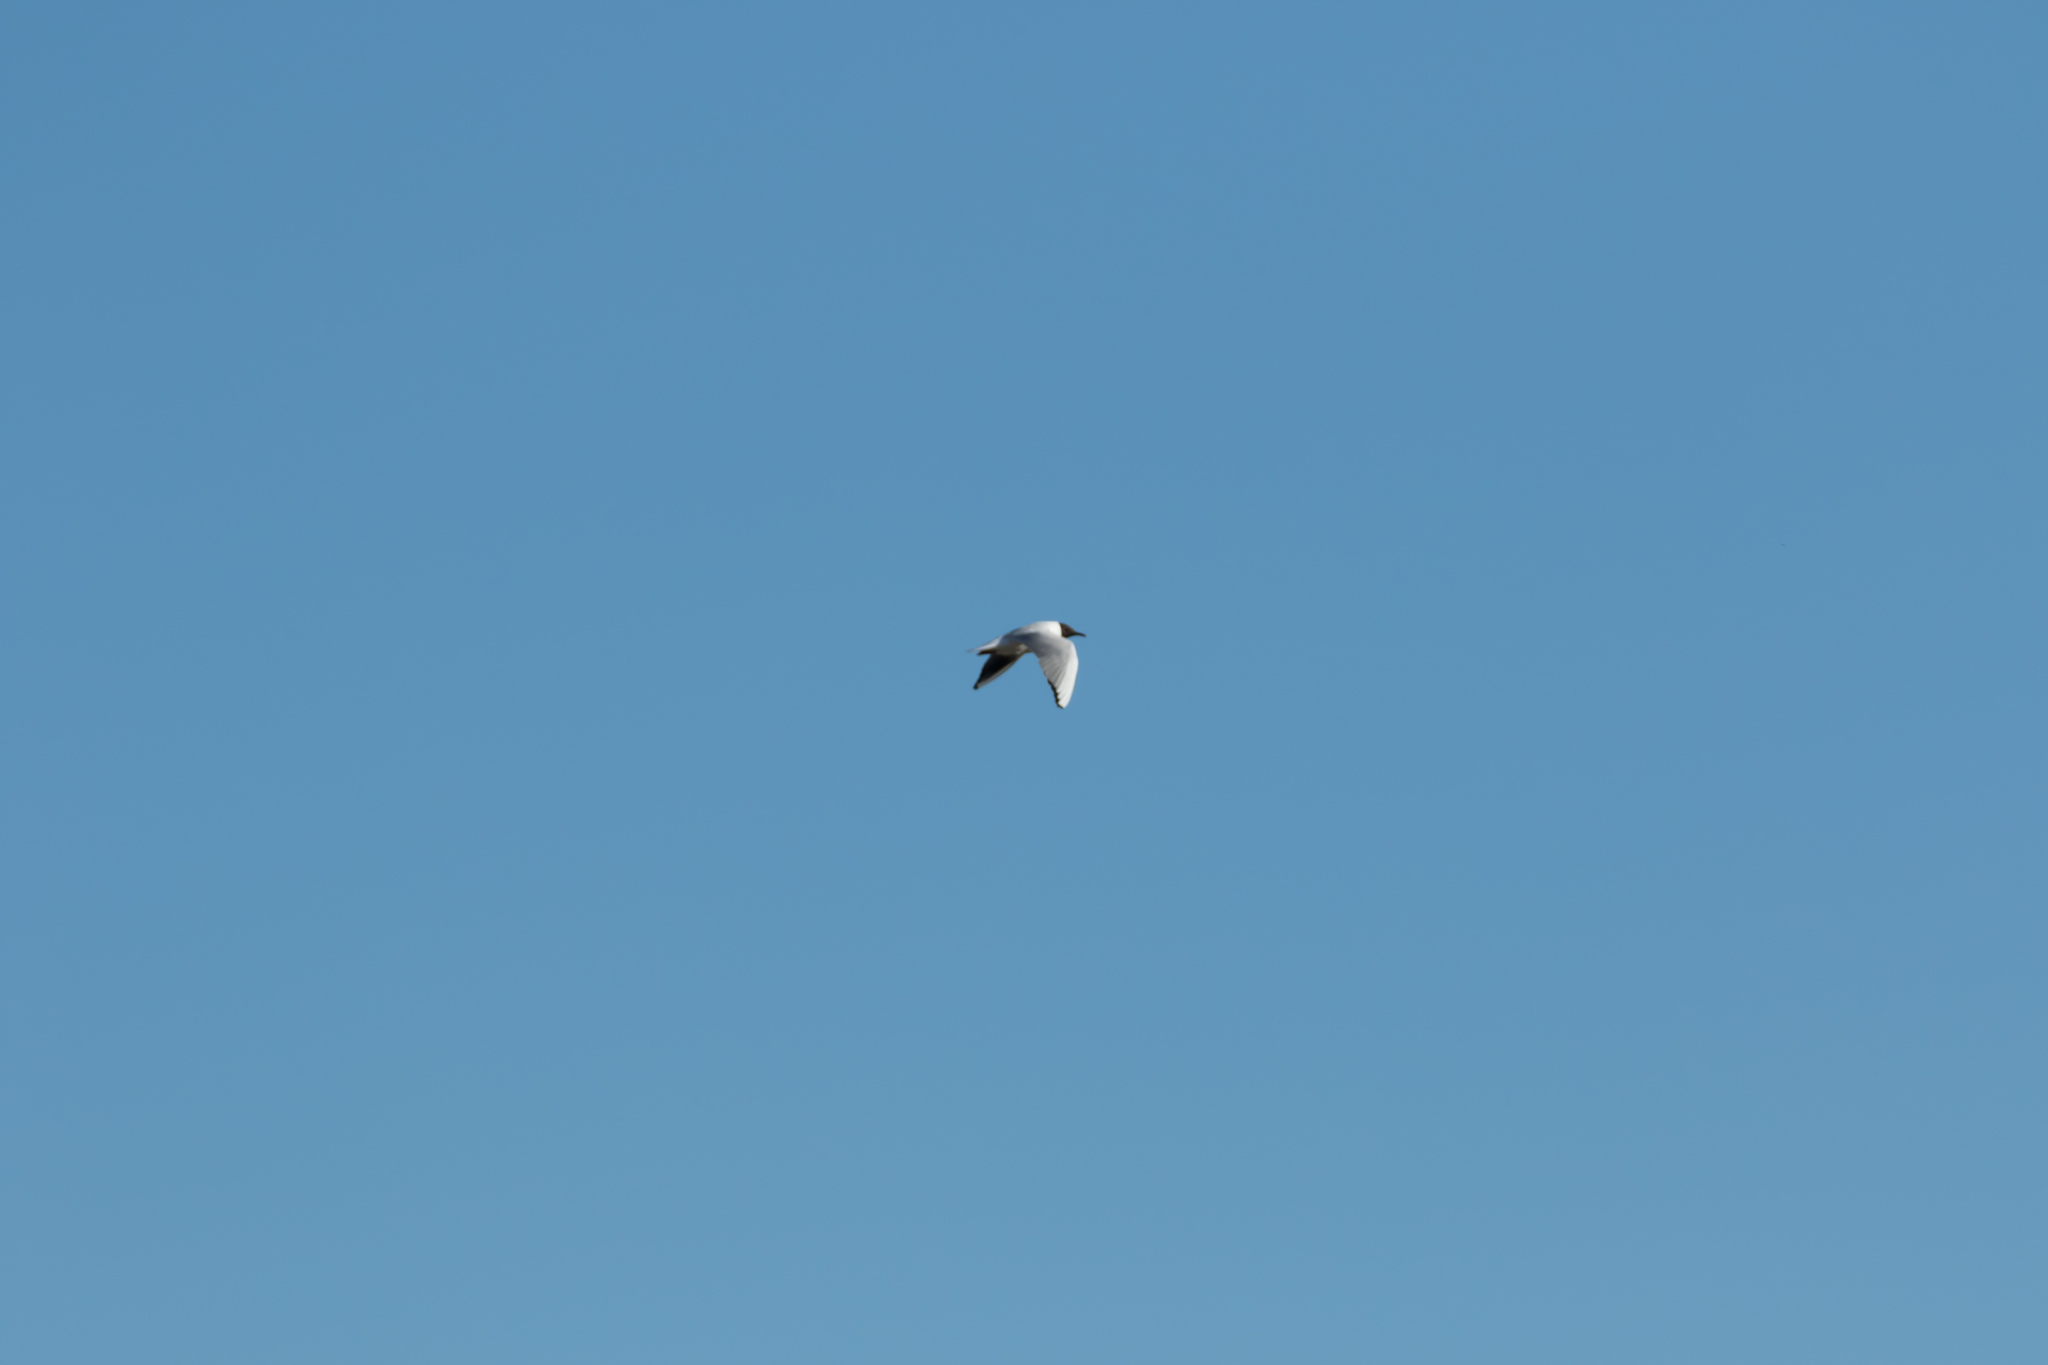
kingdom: Animalia
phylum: Chordata
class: Aves
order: Charadriiformes
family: Laridae
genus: Chroicocephalus
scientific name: Chroicocephalus ridibundus
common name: Black-headed gull
